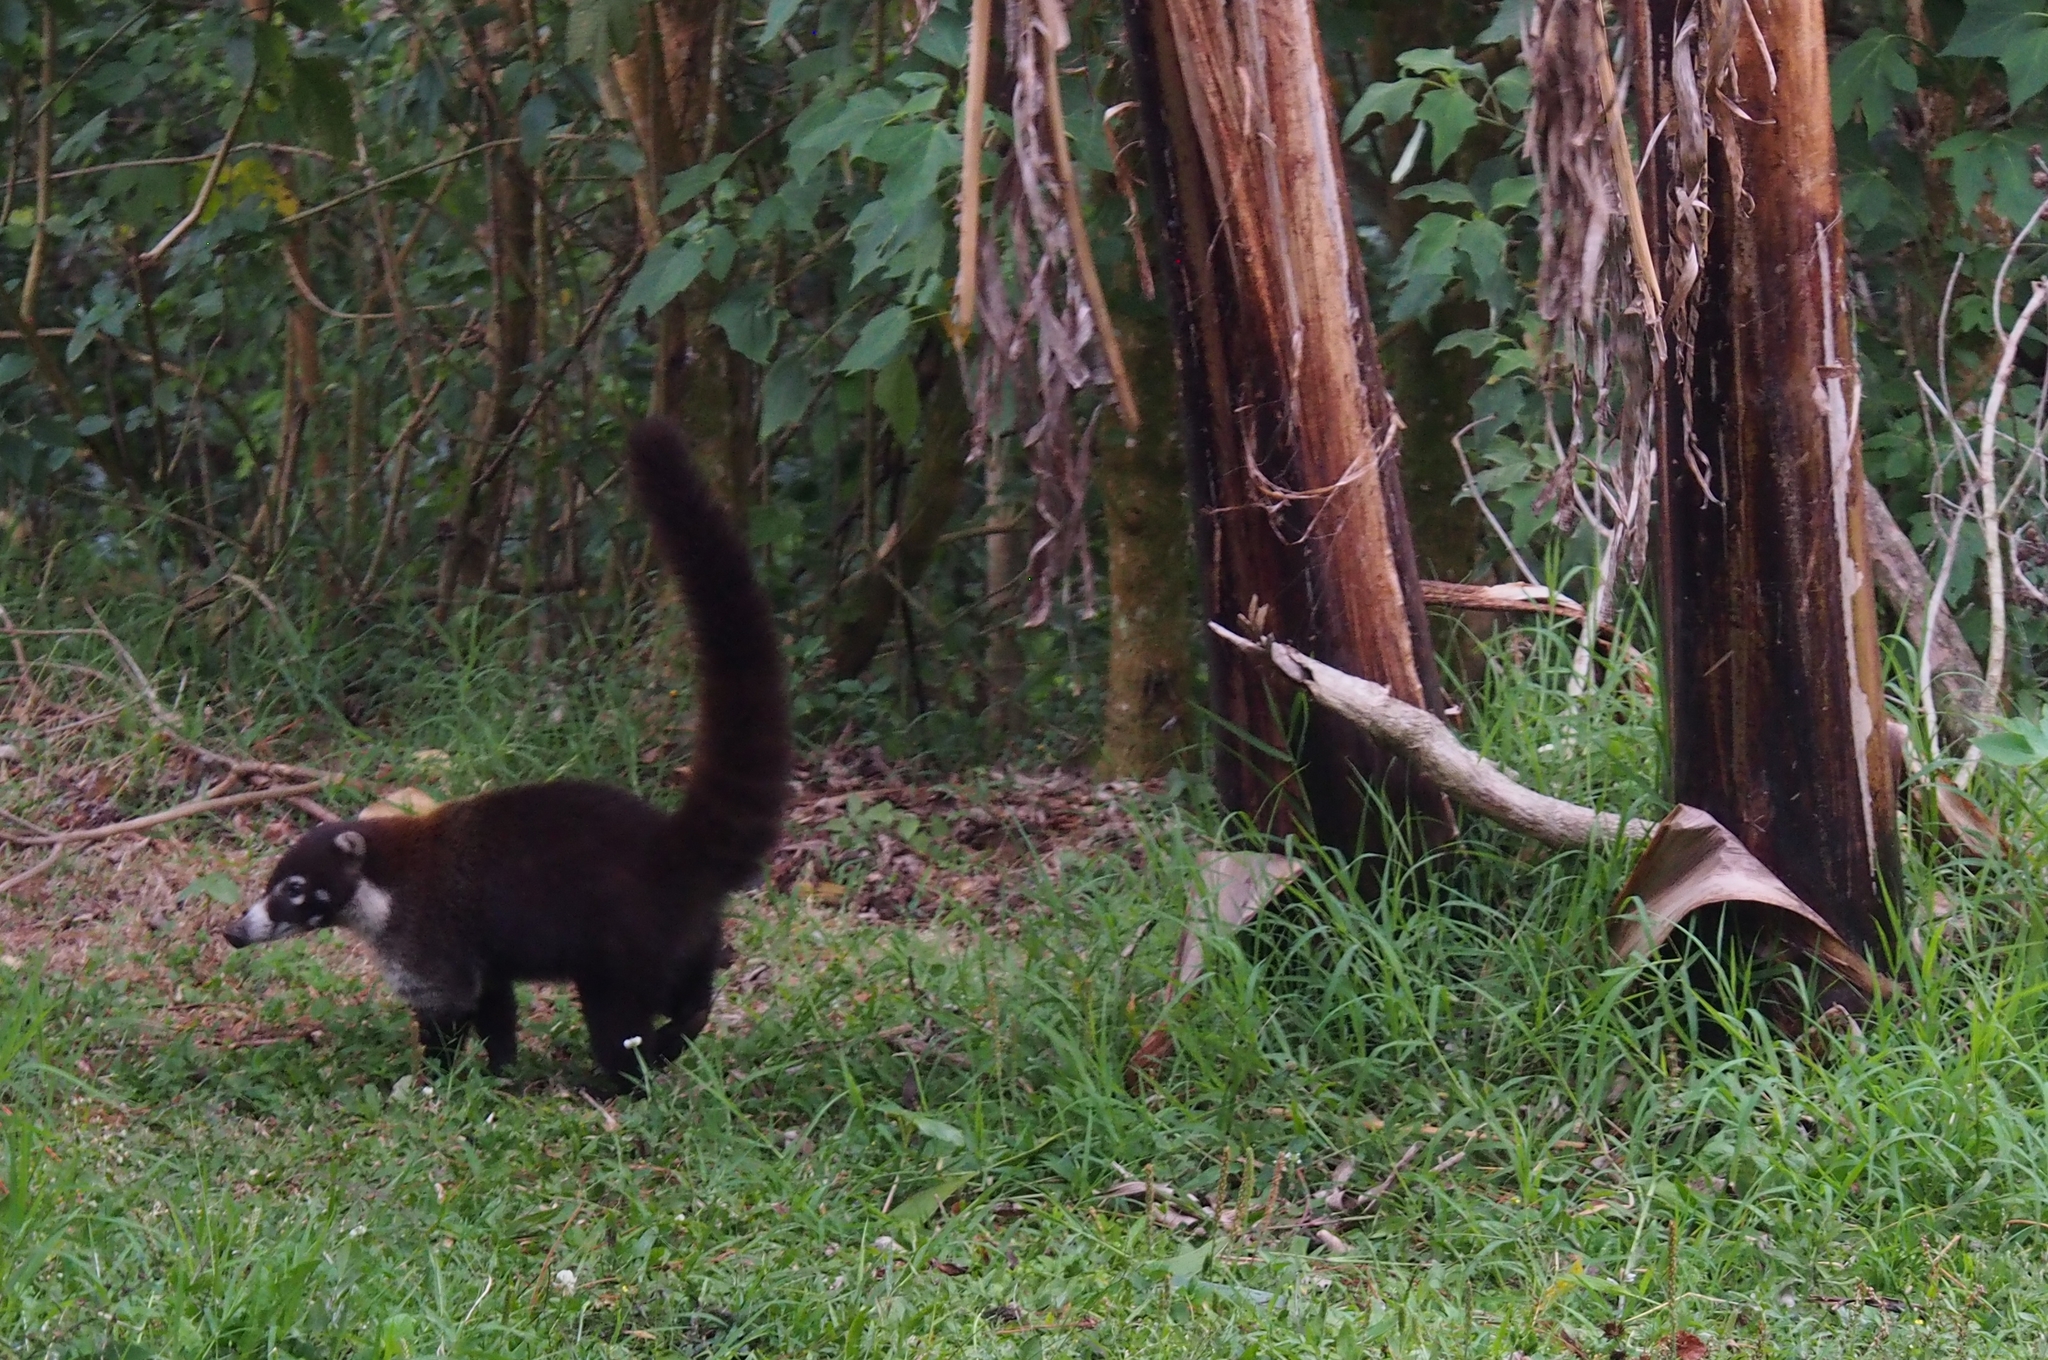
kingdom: Animalia
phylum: Chordata
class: Mammalia
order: Carnivora
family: Procyonidae
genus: Nasua
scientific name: Nasua narica
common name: White-nosed coati
